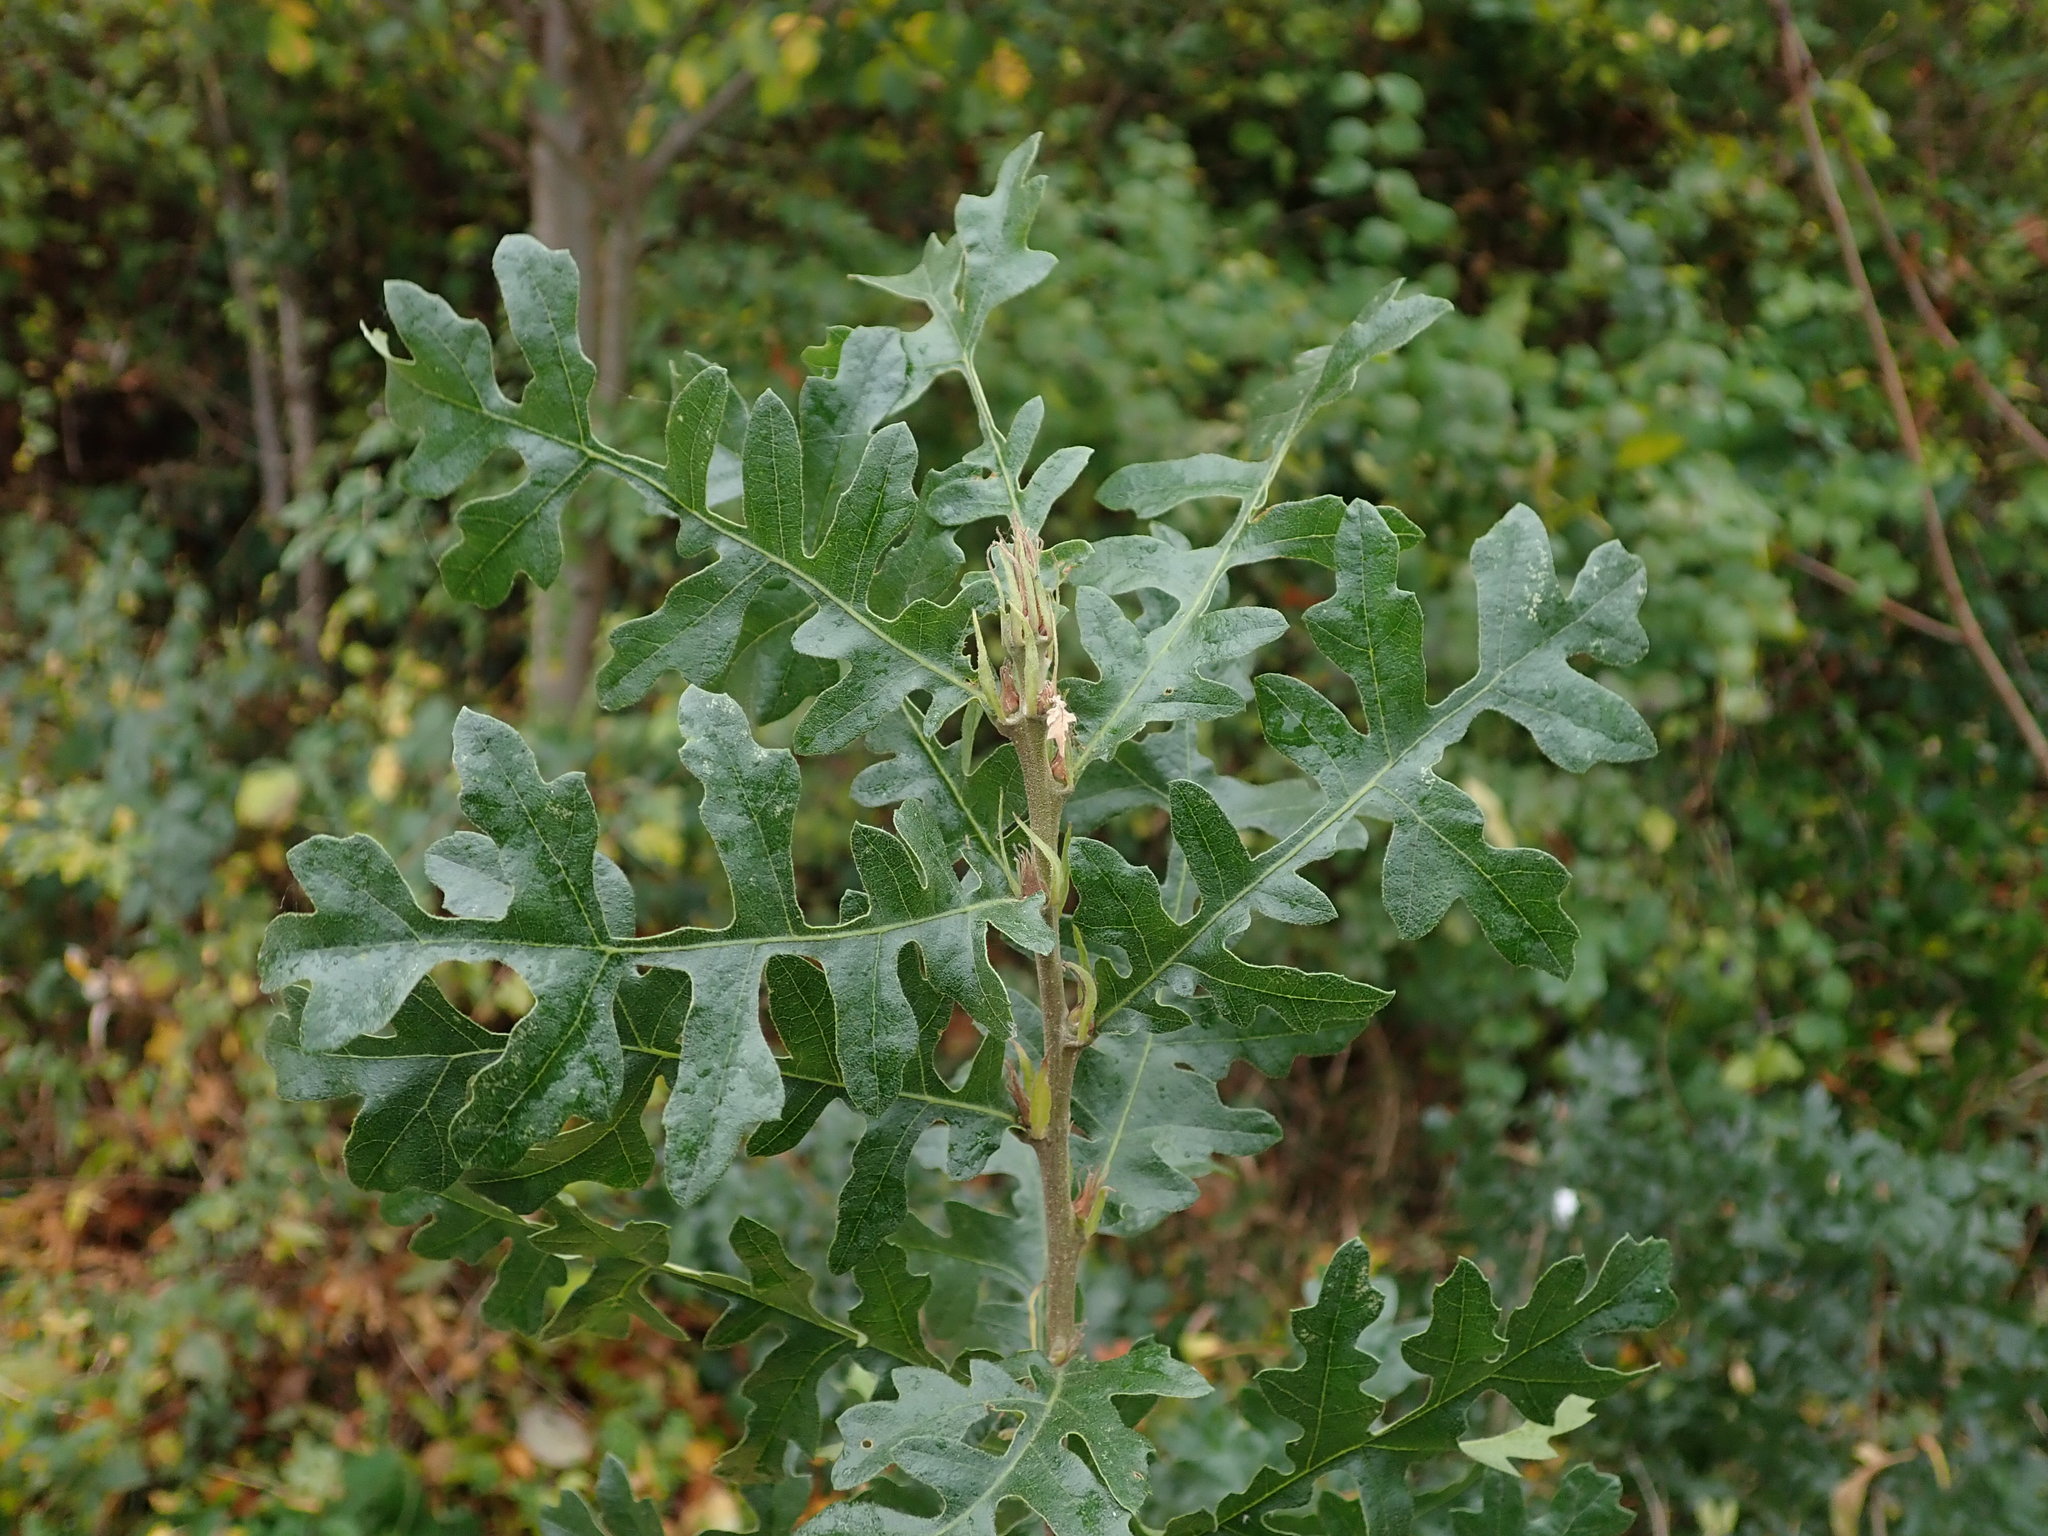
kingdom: Plantae
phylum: Tracheophyta
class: Magnoliopsida
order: Fagales
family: Fagaceae
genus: Quercus
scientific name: Quercus cerris
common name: Turkey oak
